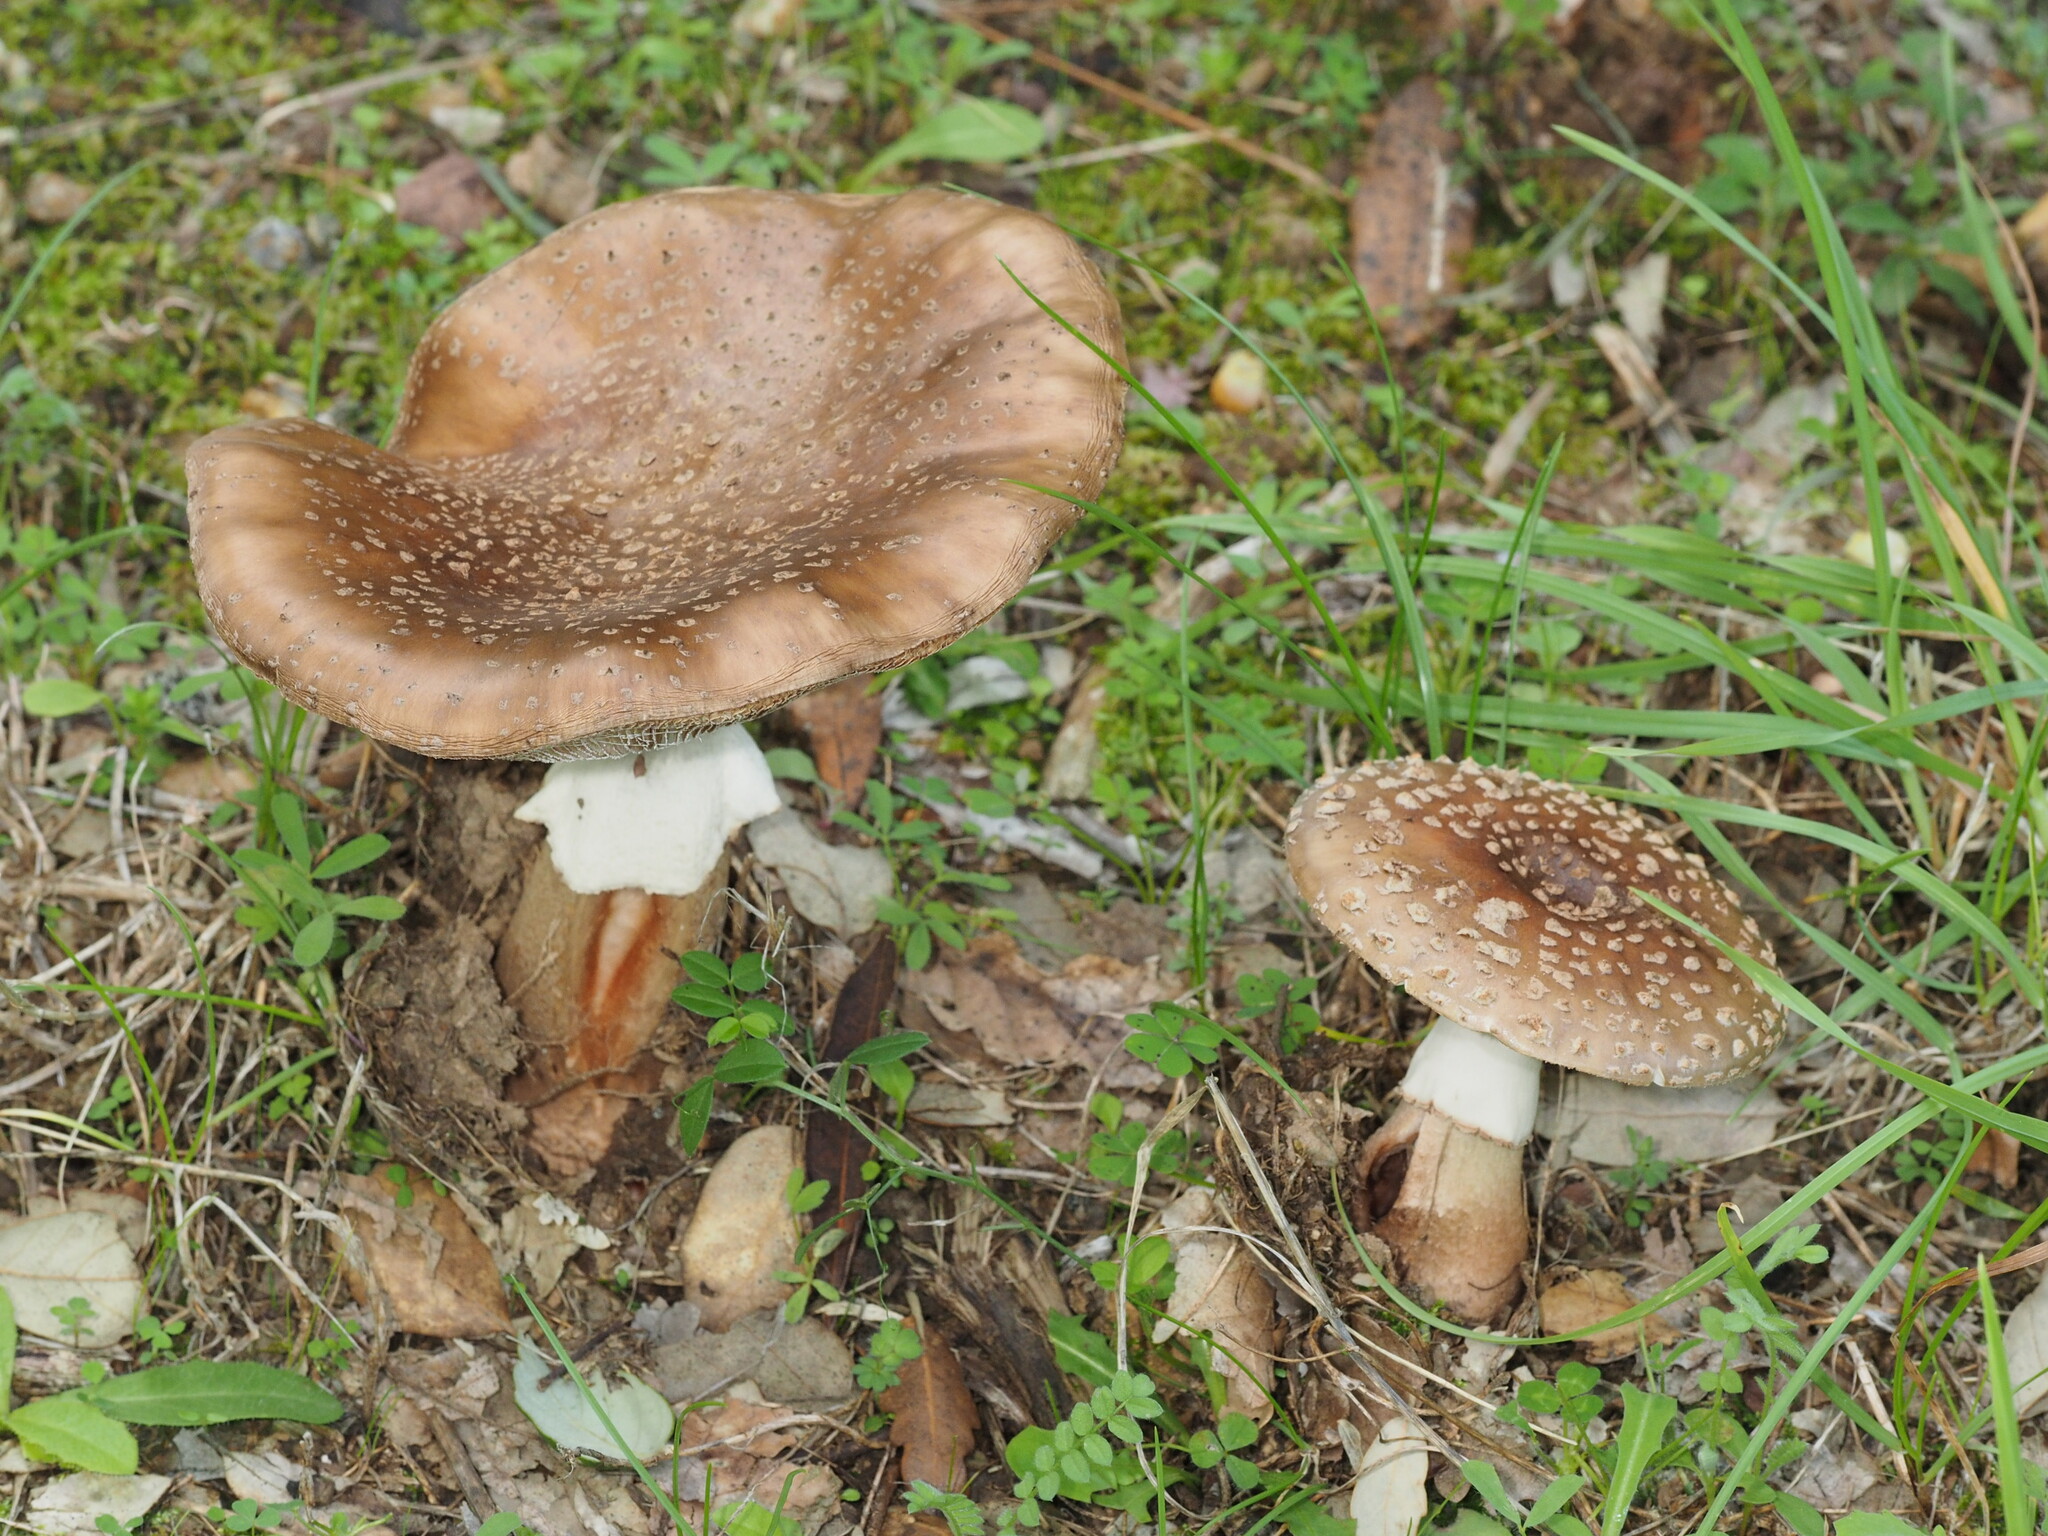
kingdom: Fungi
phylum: Basidiomycota
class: Agaricomycetes
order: Agaricales
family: Amanitaceae
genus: Amanita
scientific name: Amanita rubescens
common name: Blusher
